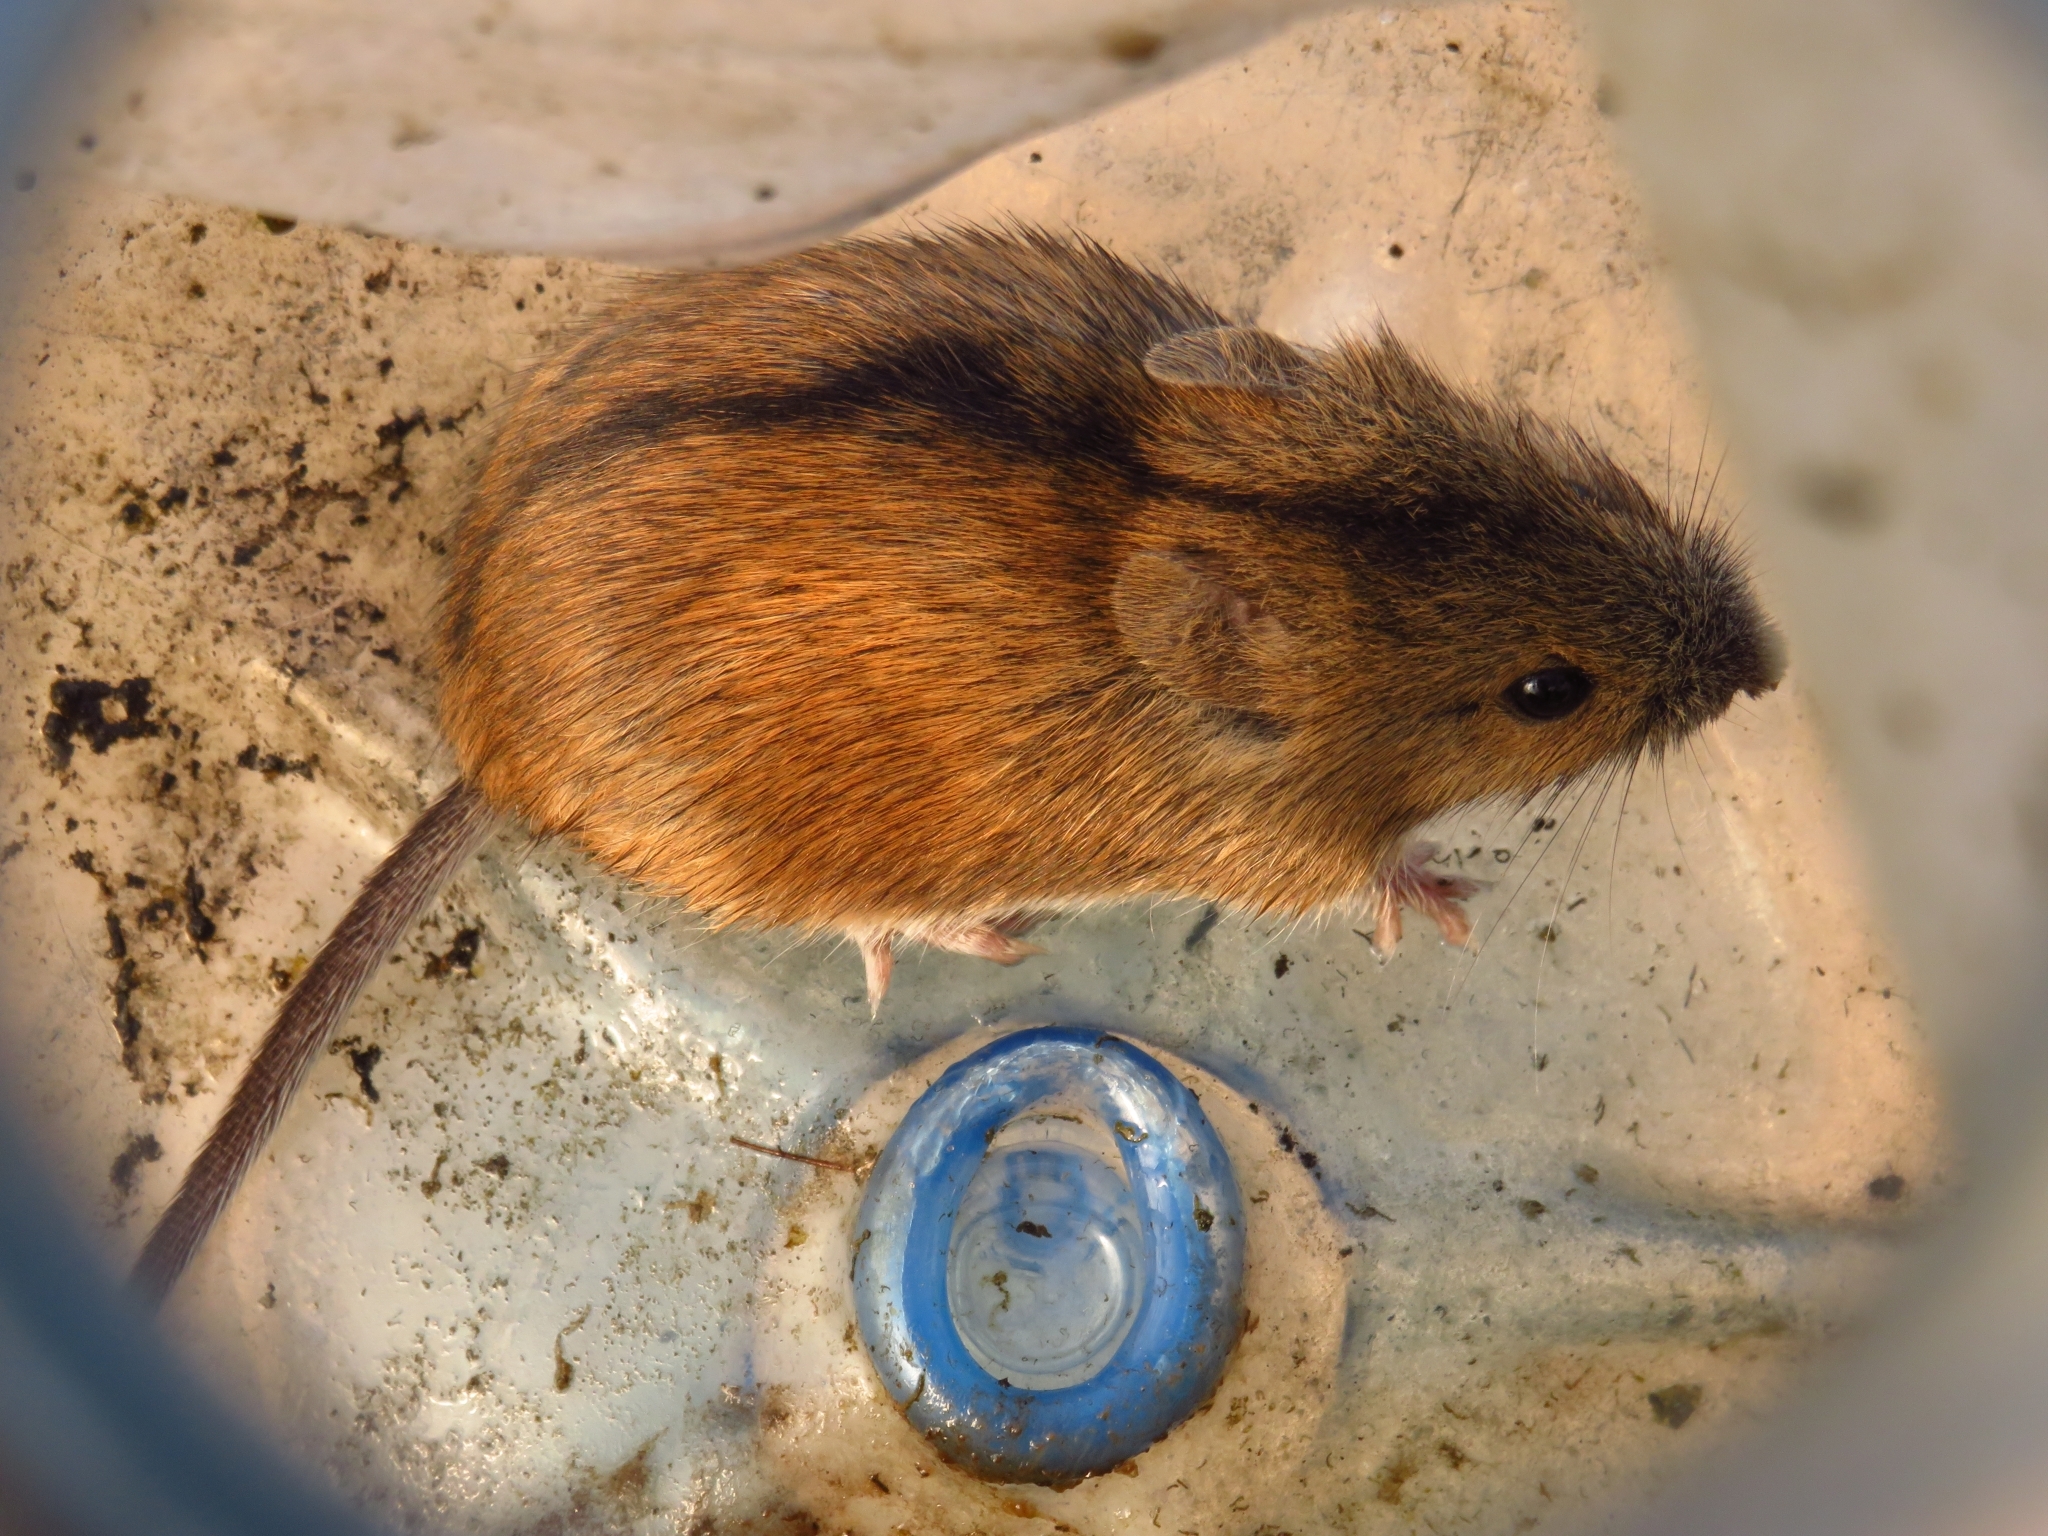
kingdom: Animalia
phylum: Chordata
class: Mammalia
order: Rodentia
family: Muridae
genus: Apodemus
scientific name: Apodemus agrarius
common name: Striped field mouse
